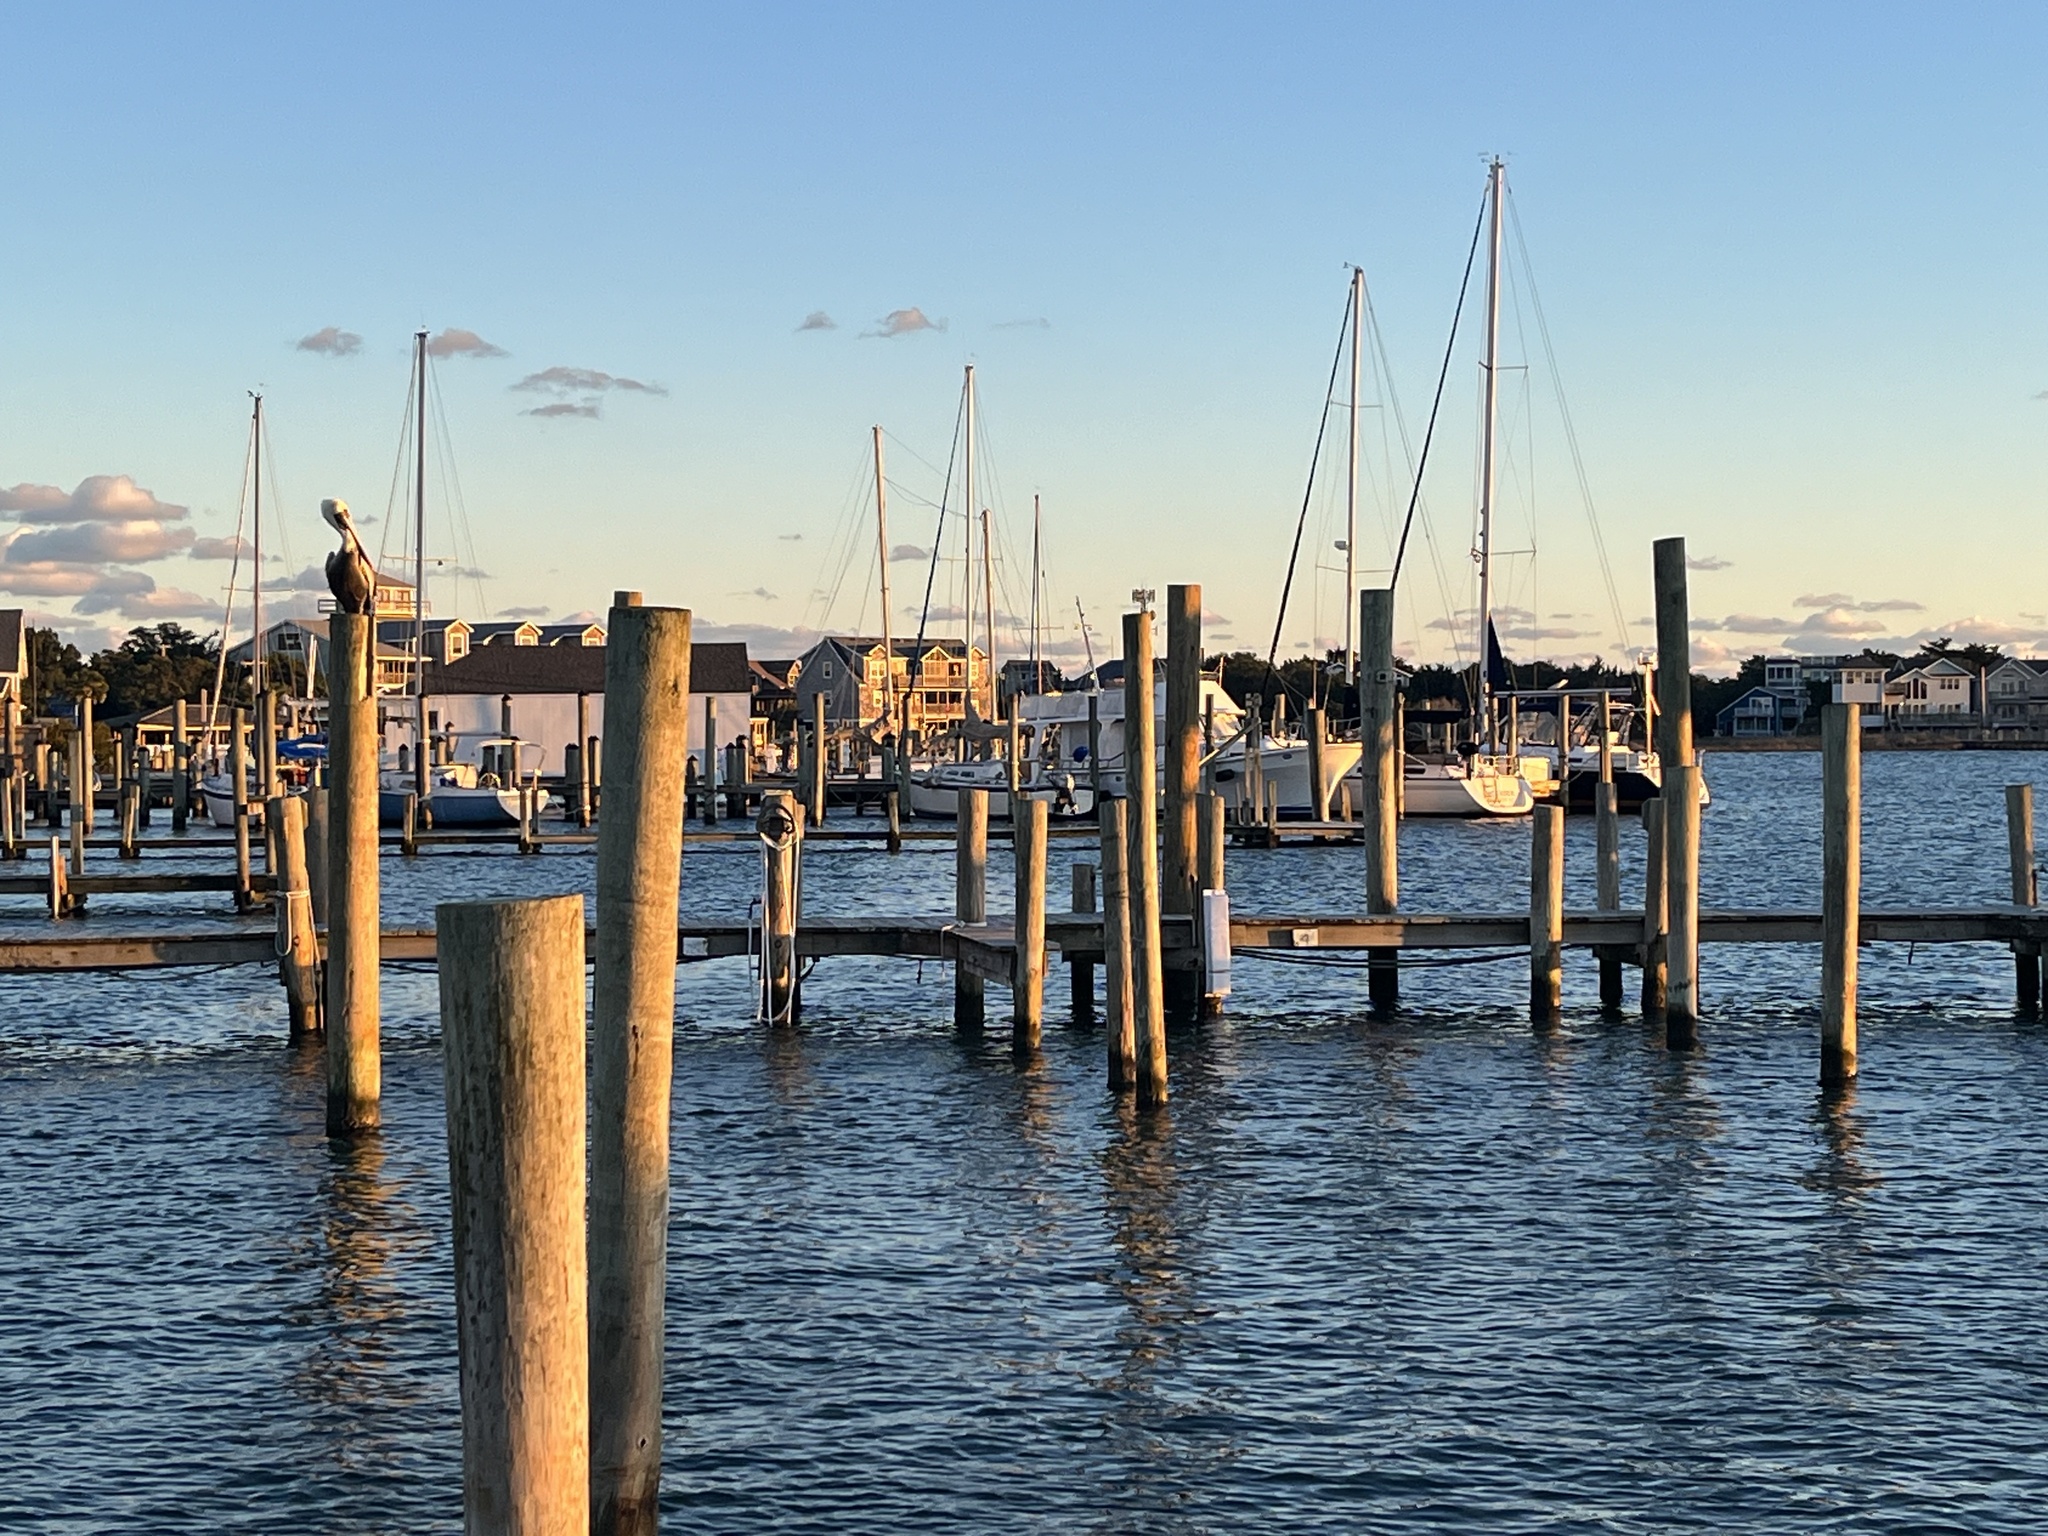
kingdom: Animalia
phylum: Chordata
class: Aves
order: Pelecaniformes
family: Pelecanidae
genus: Pelecanus
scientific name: Pelecanus occidentalis
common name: Brown pelican
